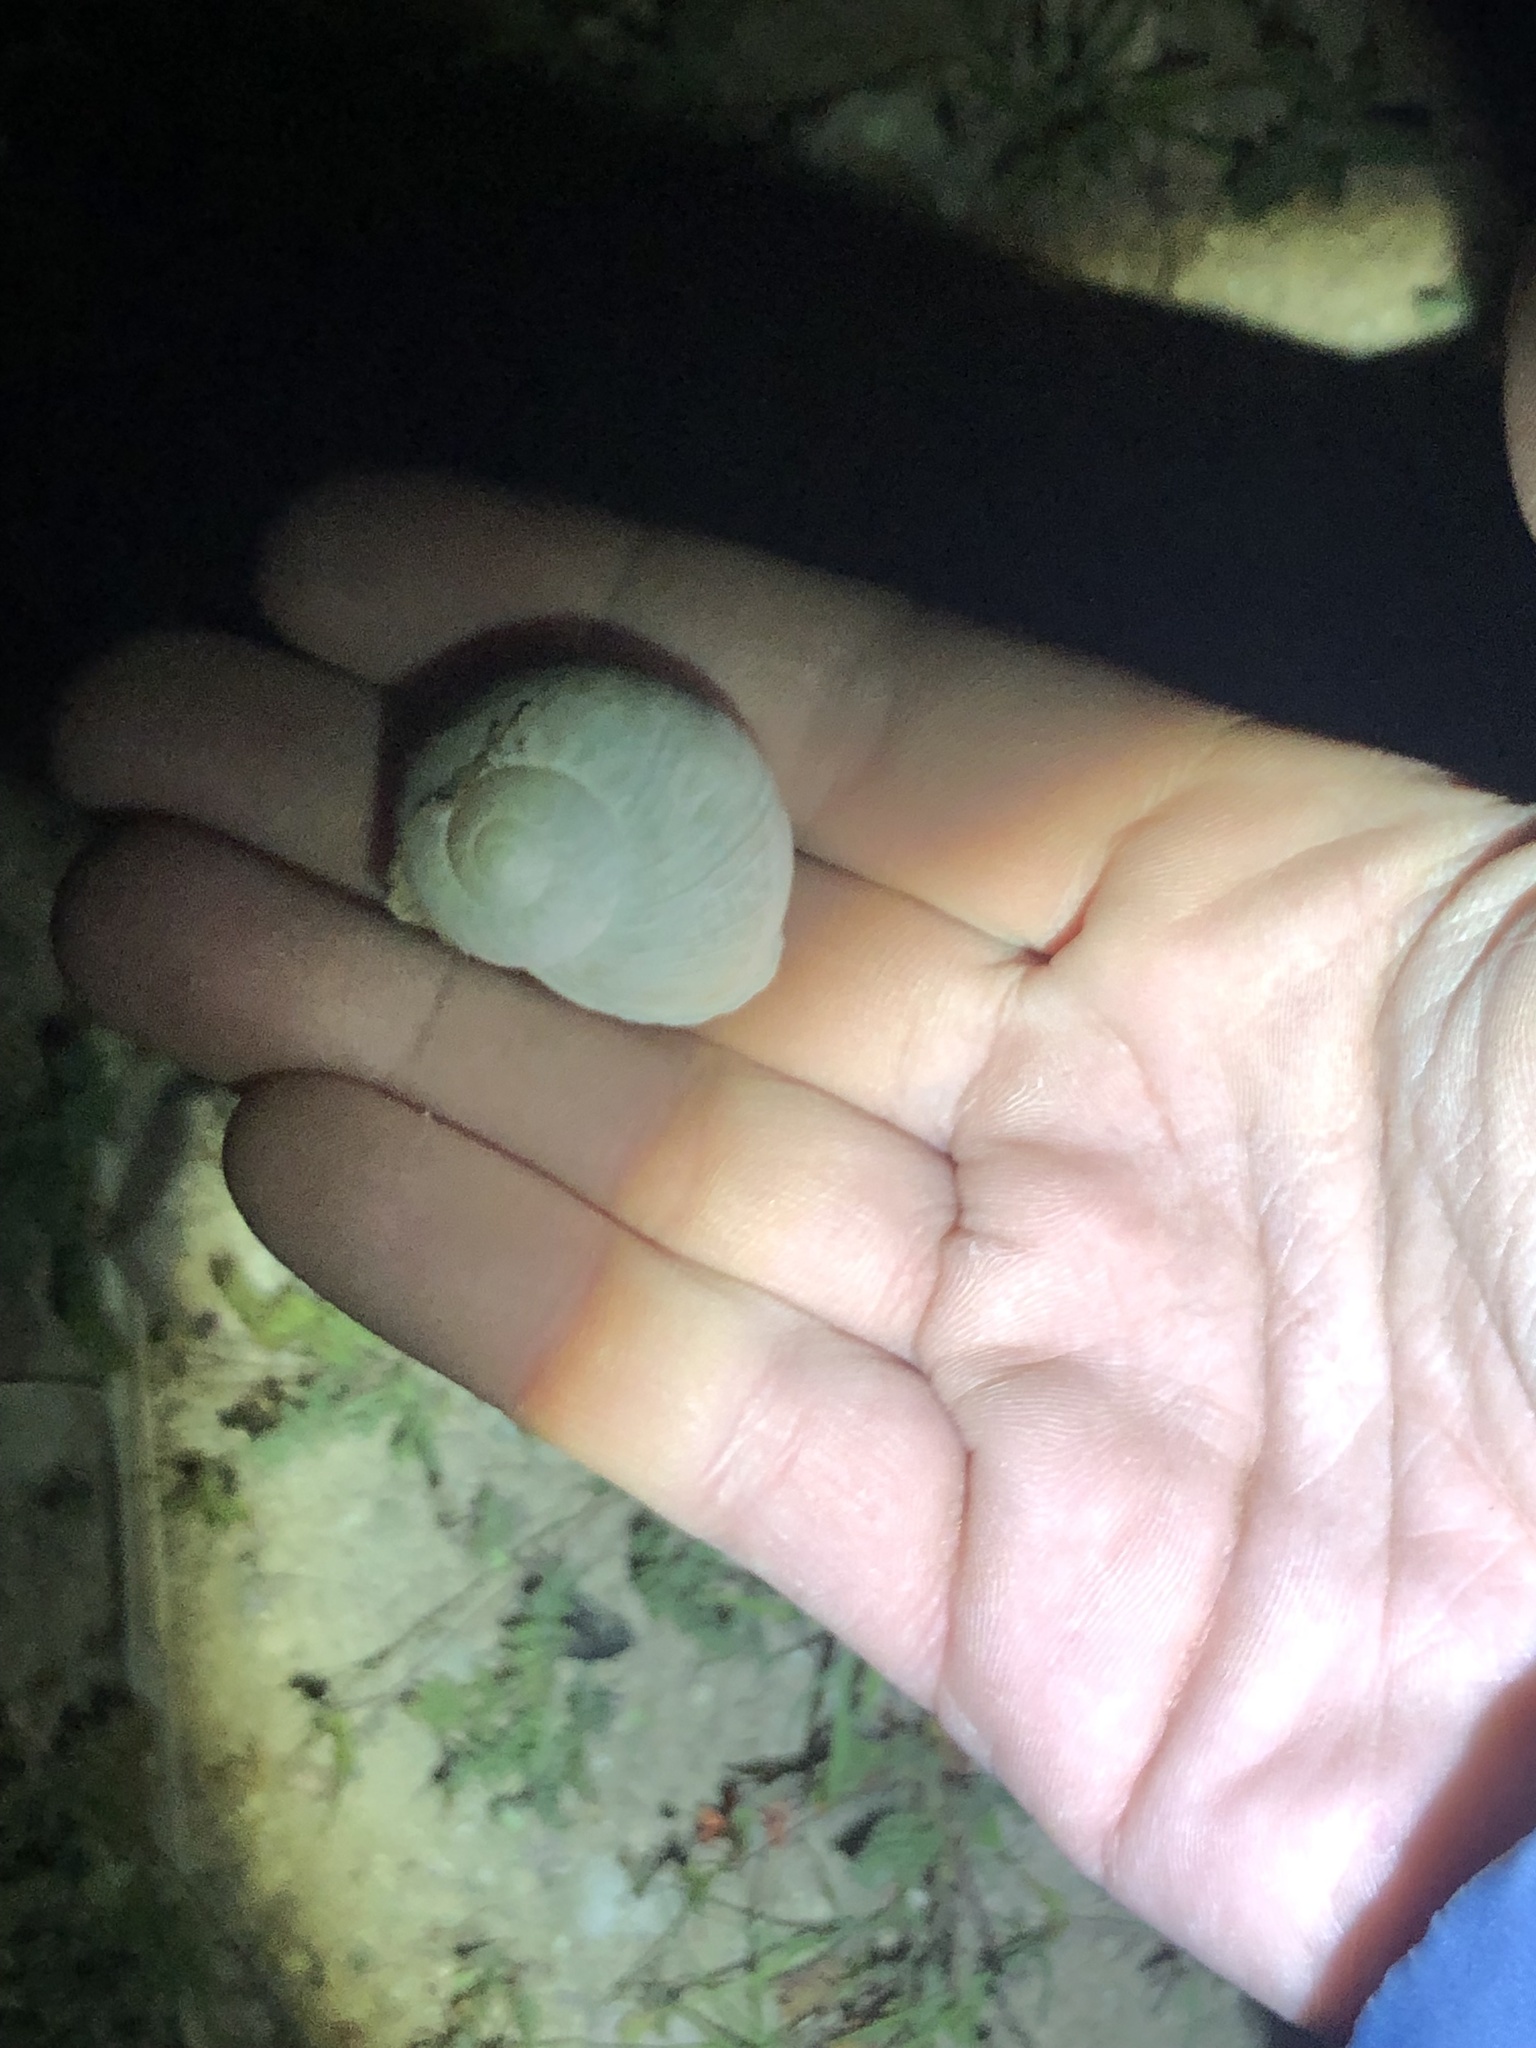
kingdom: Animalia
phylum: Mollusca
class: Gastropoda
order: Stylommatophora
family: Helicidae
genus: Cornu
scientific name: Cornu aspersum
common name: Brown garden snail
